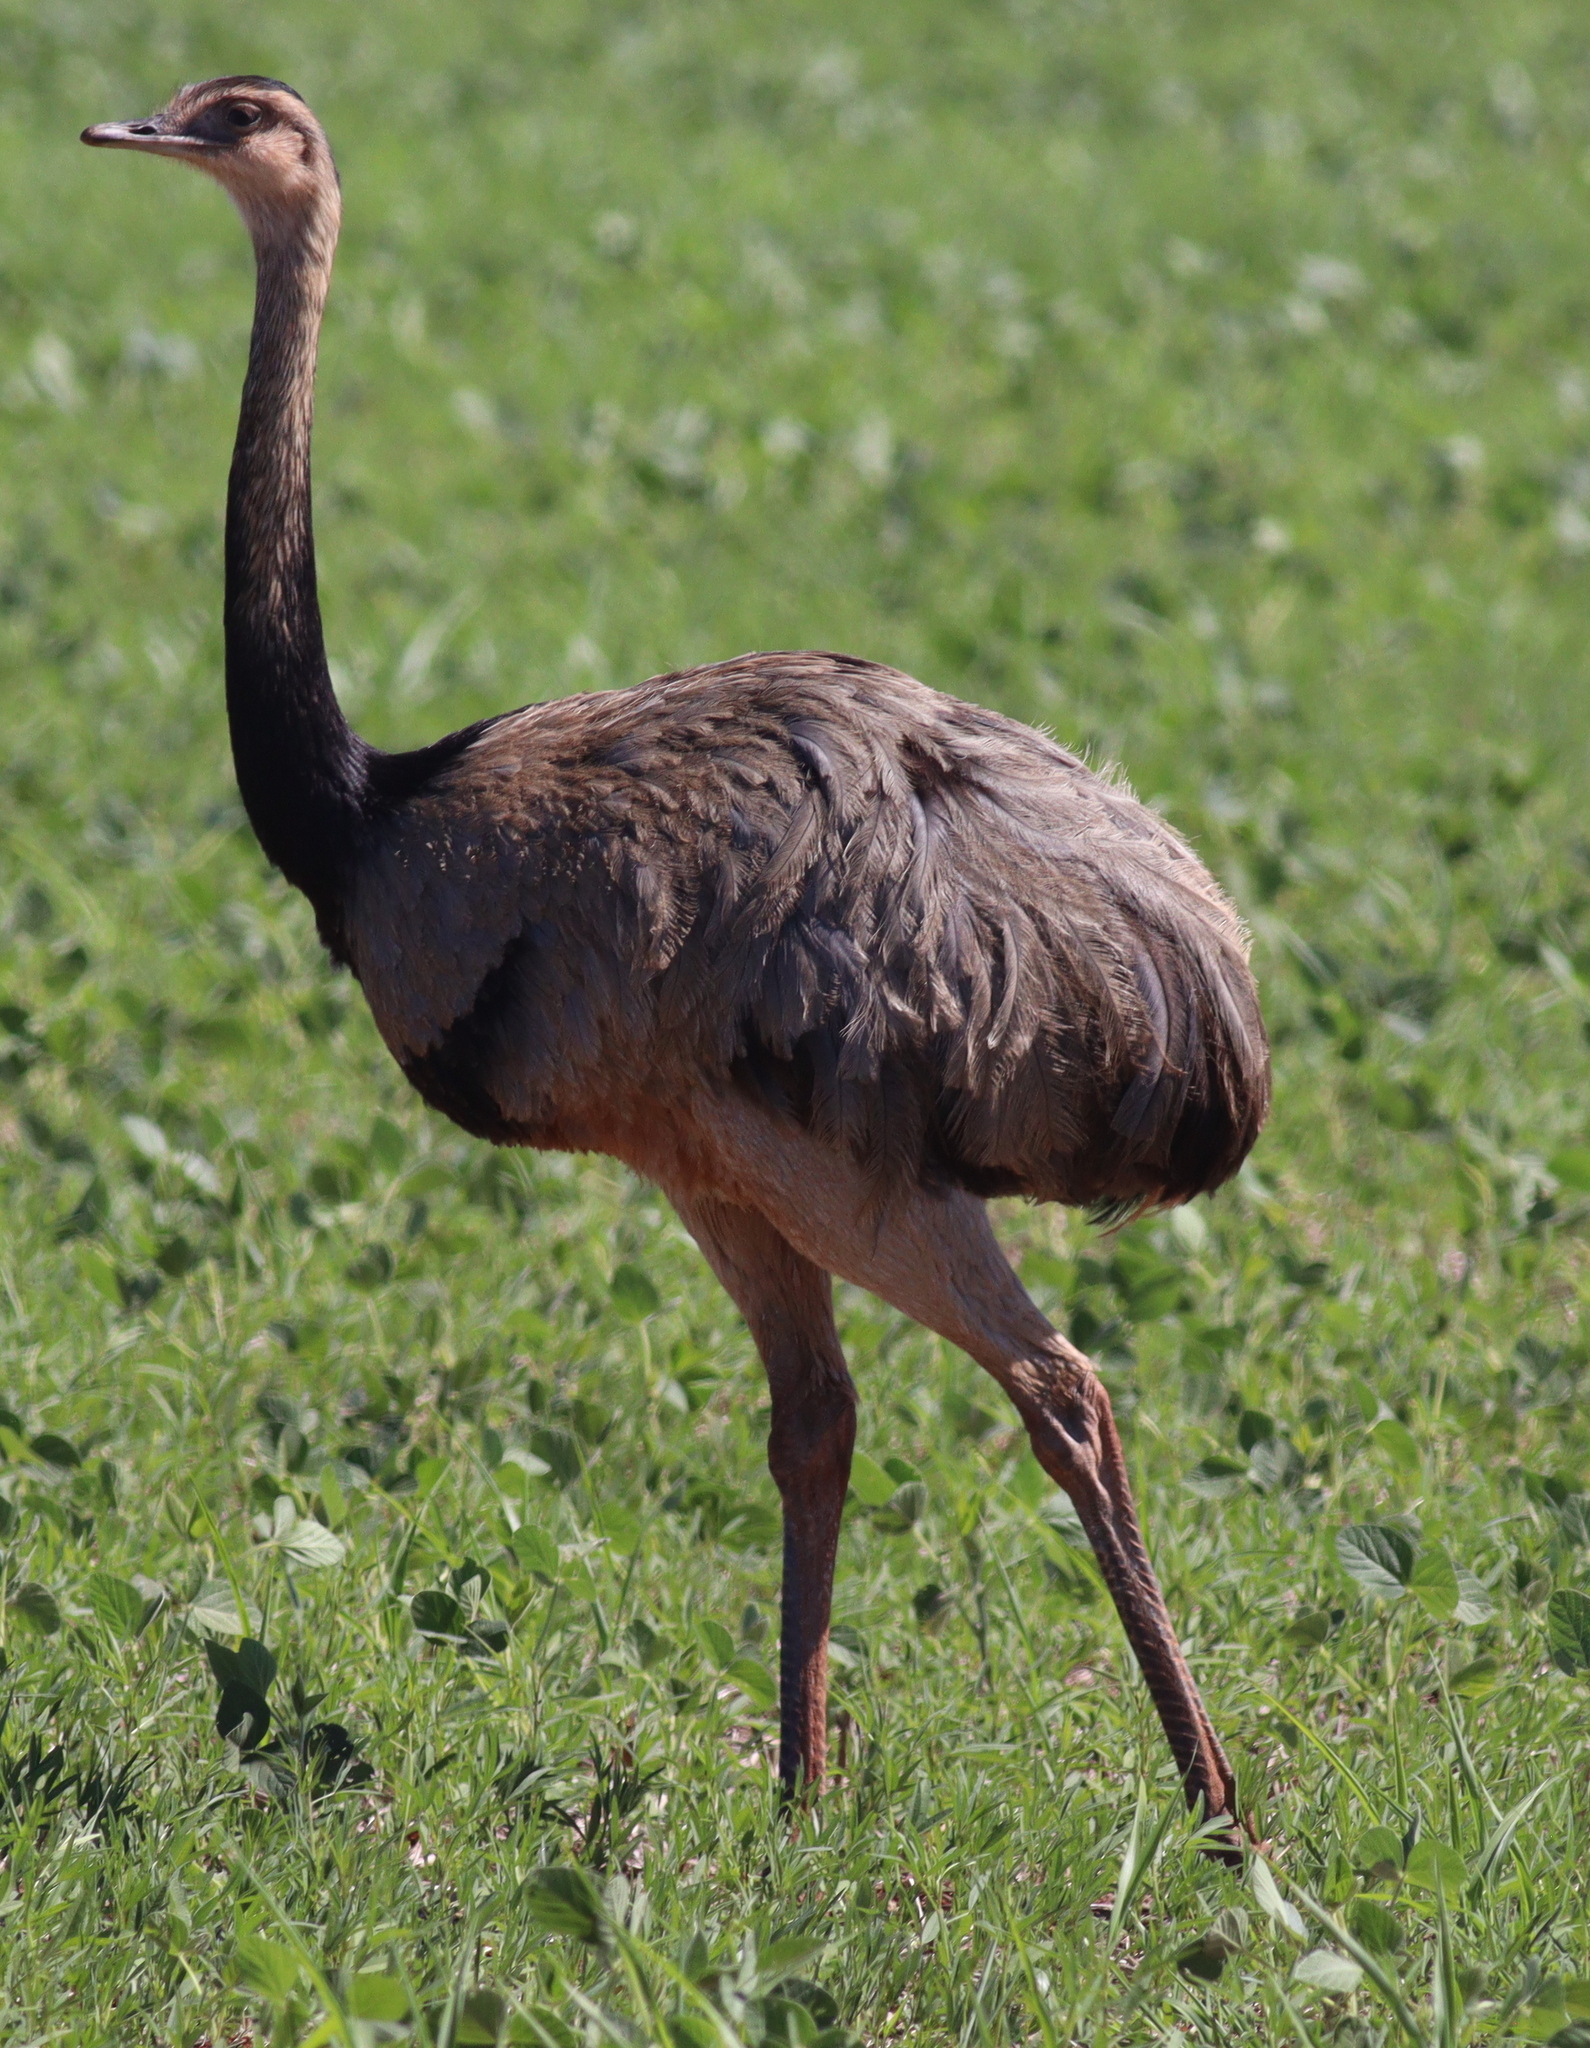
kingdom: Animalia
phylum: Chordata
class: Aves
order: Rheiformes
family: Rheidae
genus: Rhea
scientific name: Rhea americana
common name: Greater rhea
